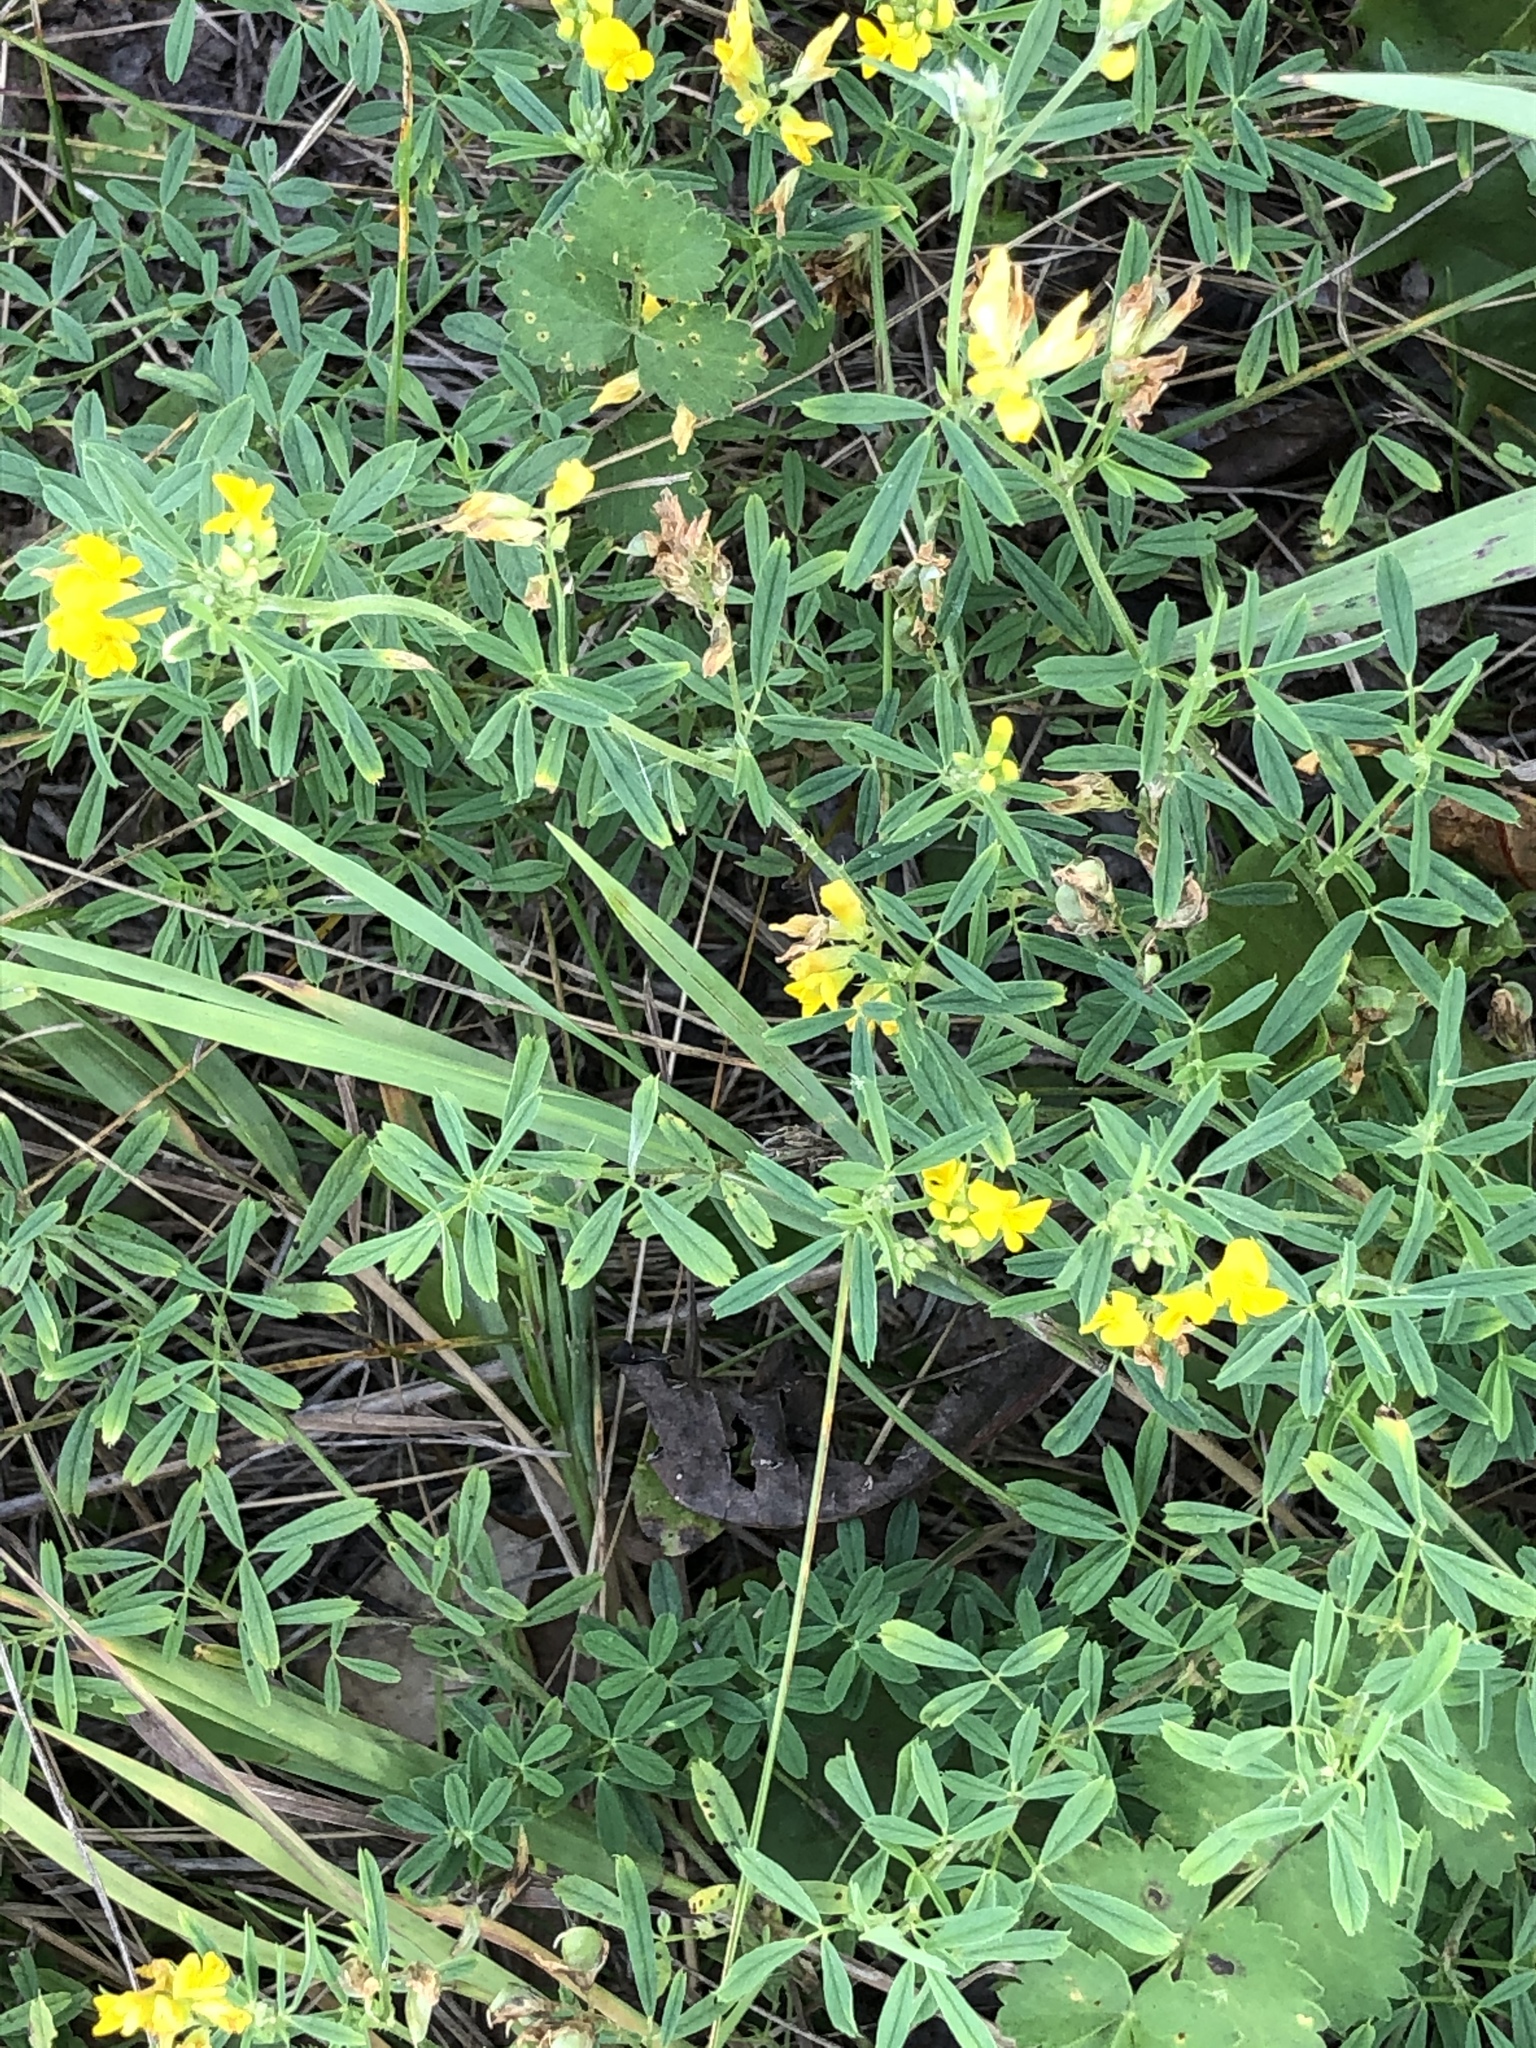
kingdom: Plantae
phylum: Tracheophyta
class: Magnoliopsida
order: Fabales
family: Fabaceae
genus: Medicago
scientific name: Medicago falcata
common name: Sickle medick
